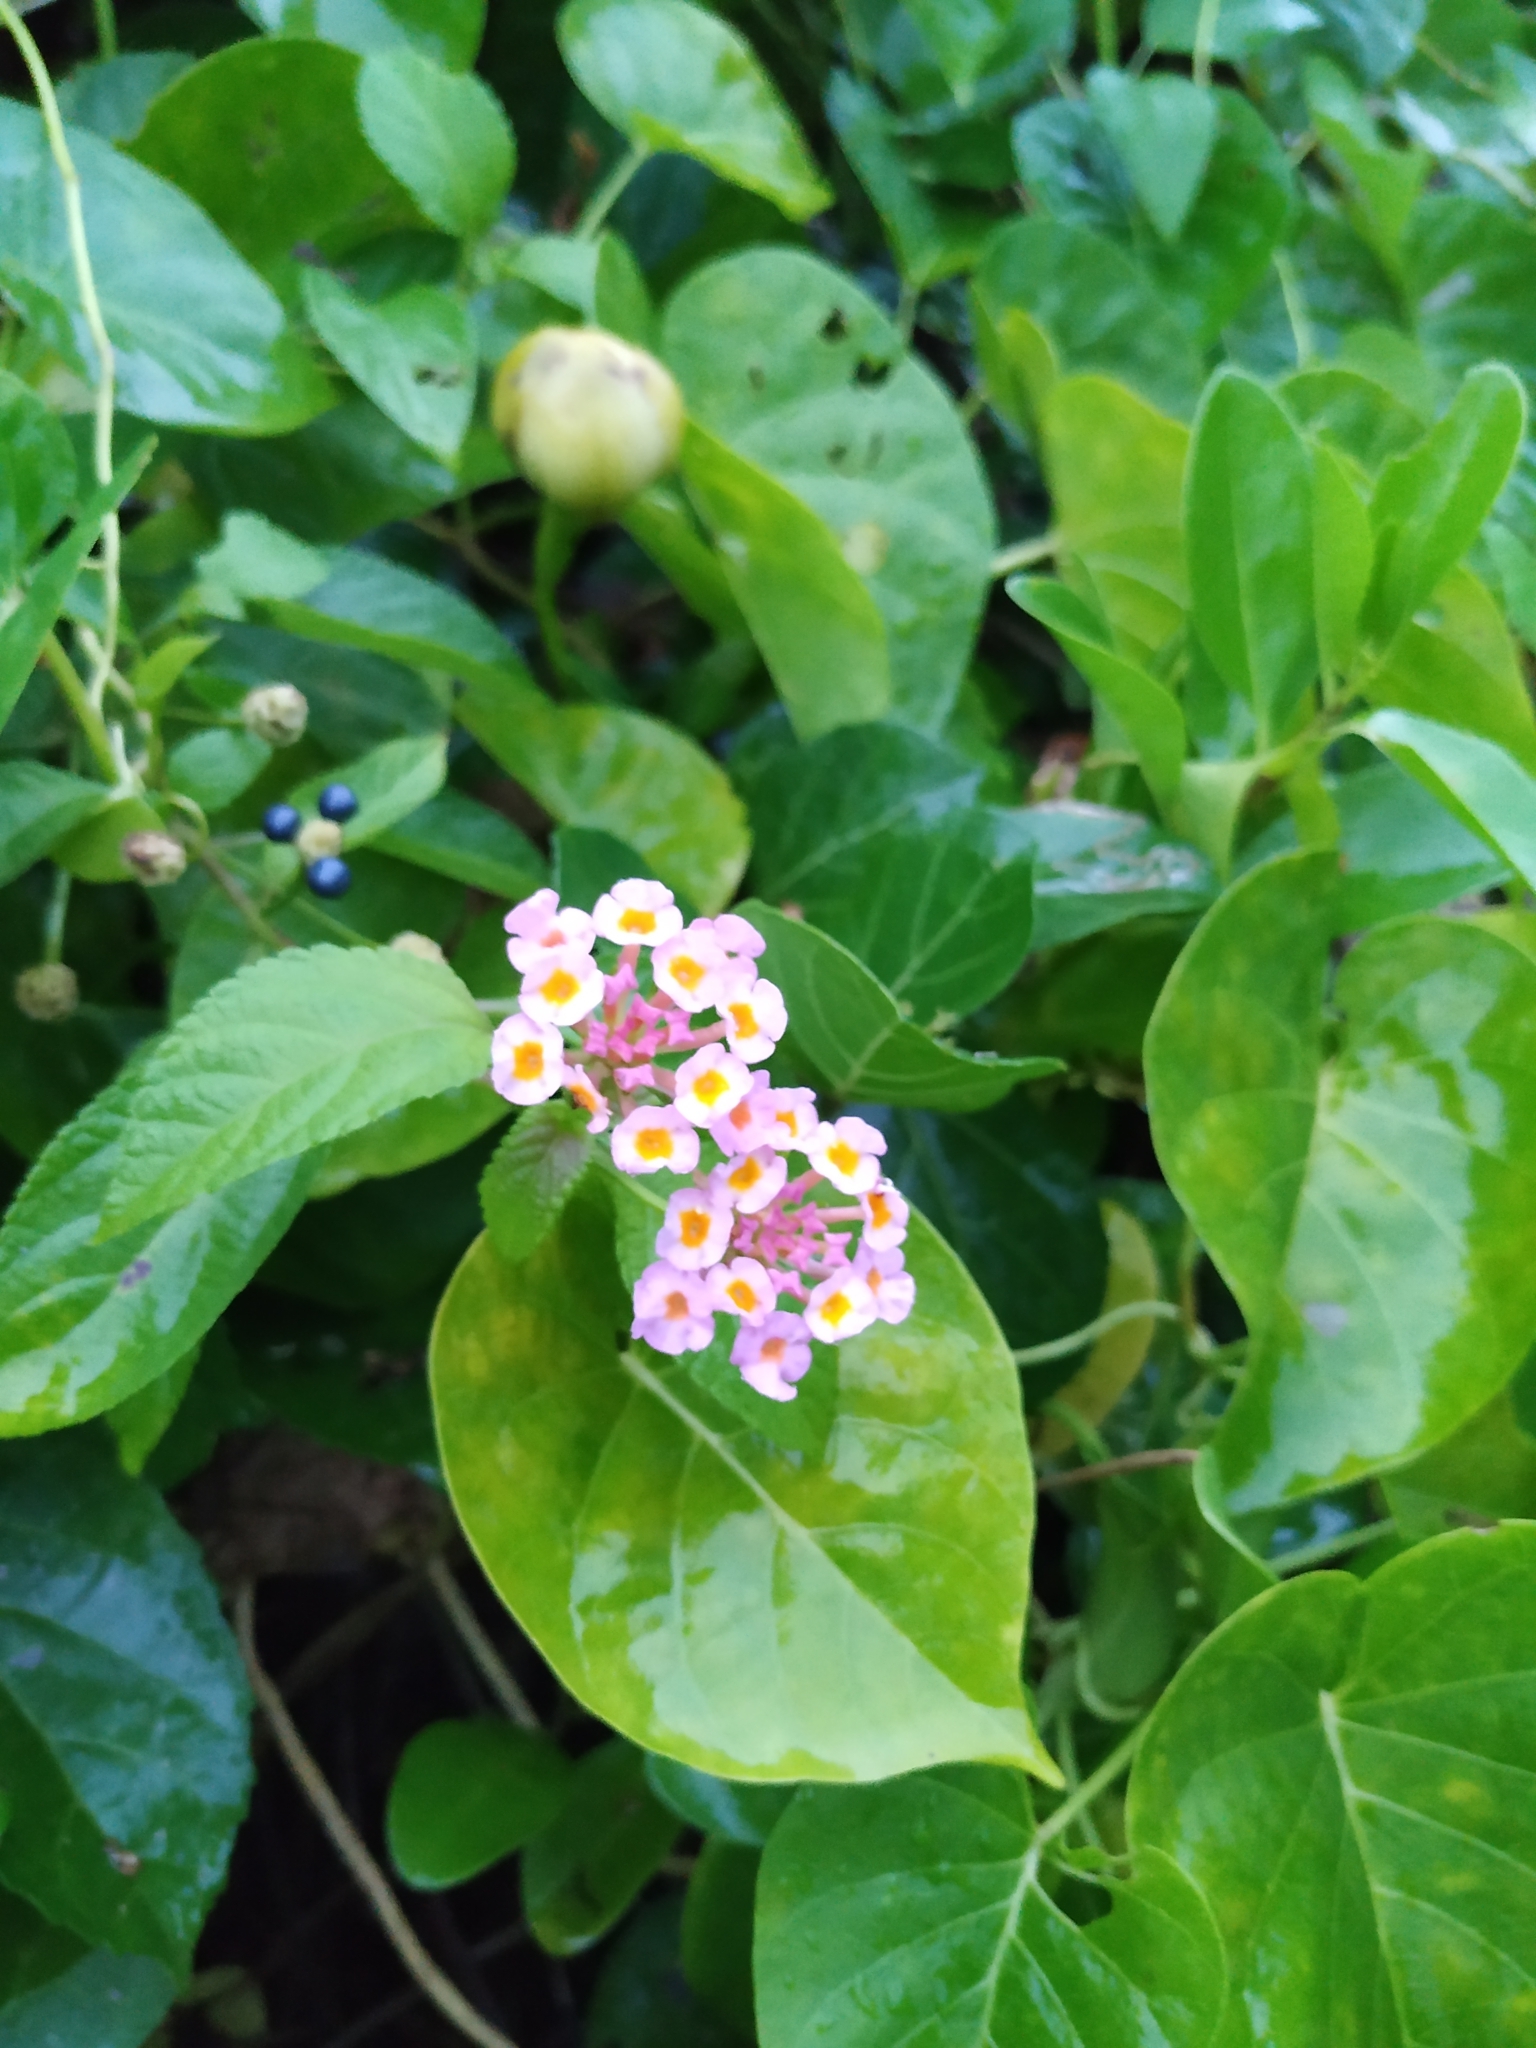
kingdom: Plantae
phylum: Tracheophyta
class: Magnoliopsida
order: Lamiales
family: Verbenaceae
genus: Lantana
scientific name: Lantana camara
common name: Lantana
